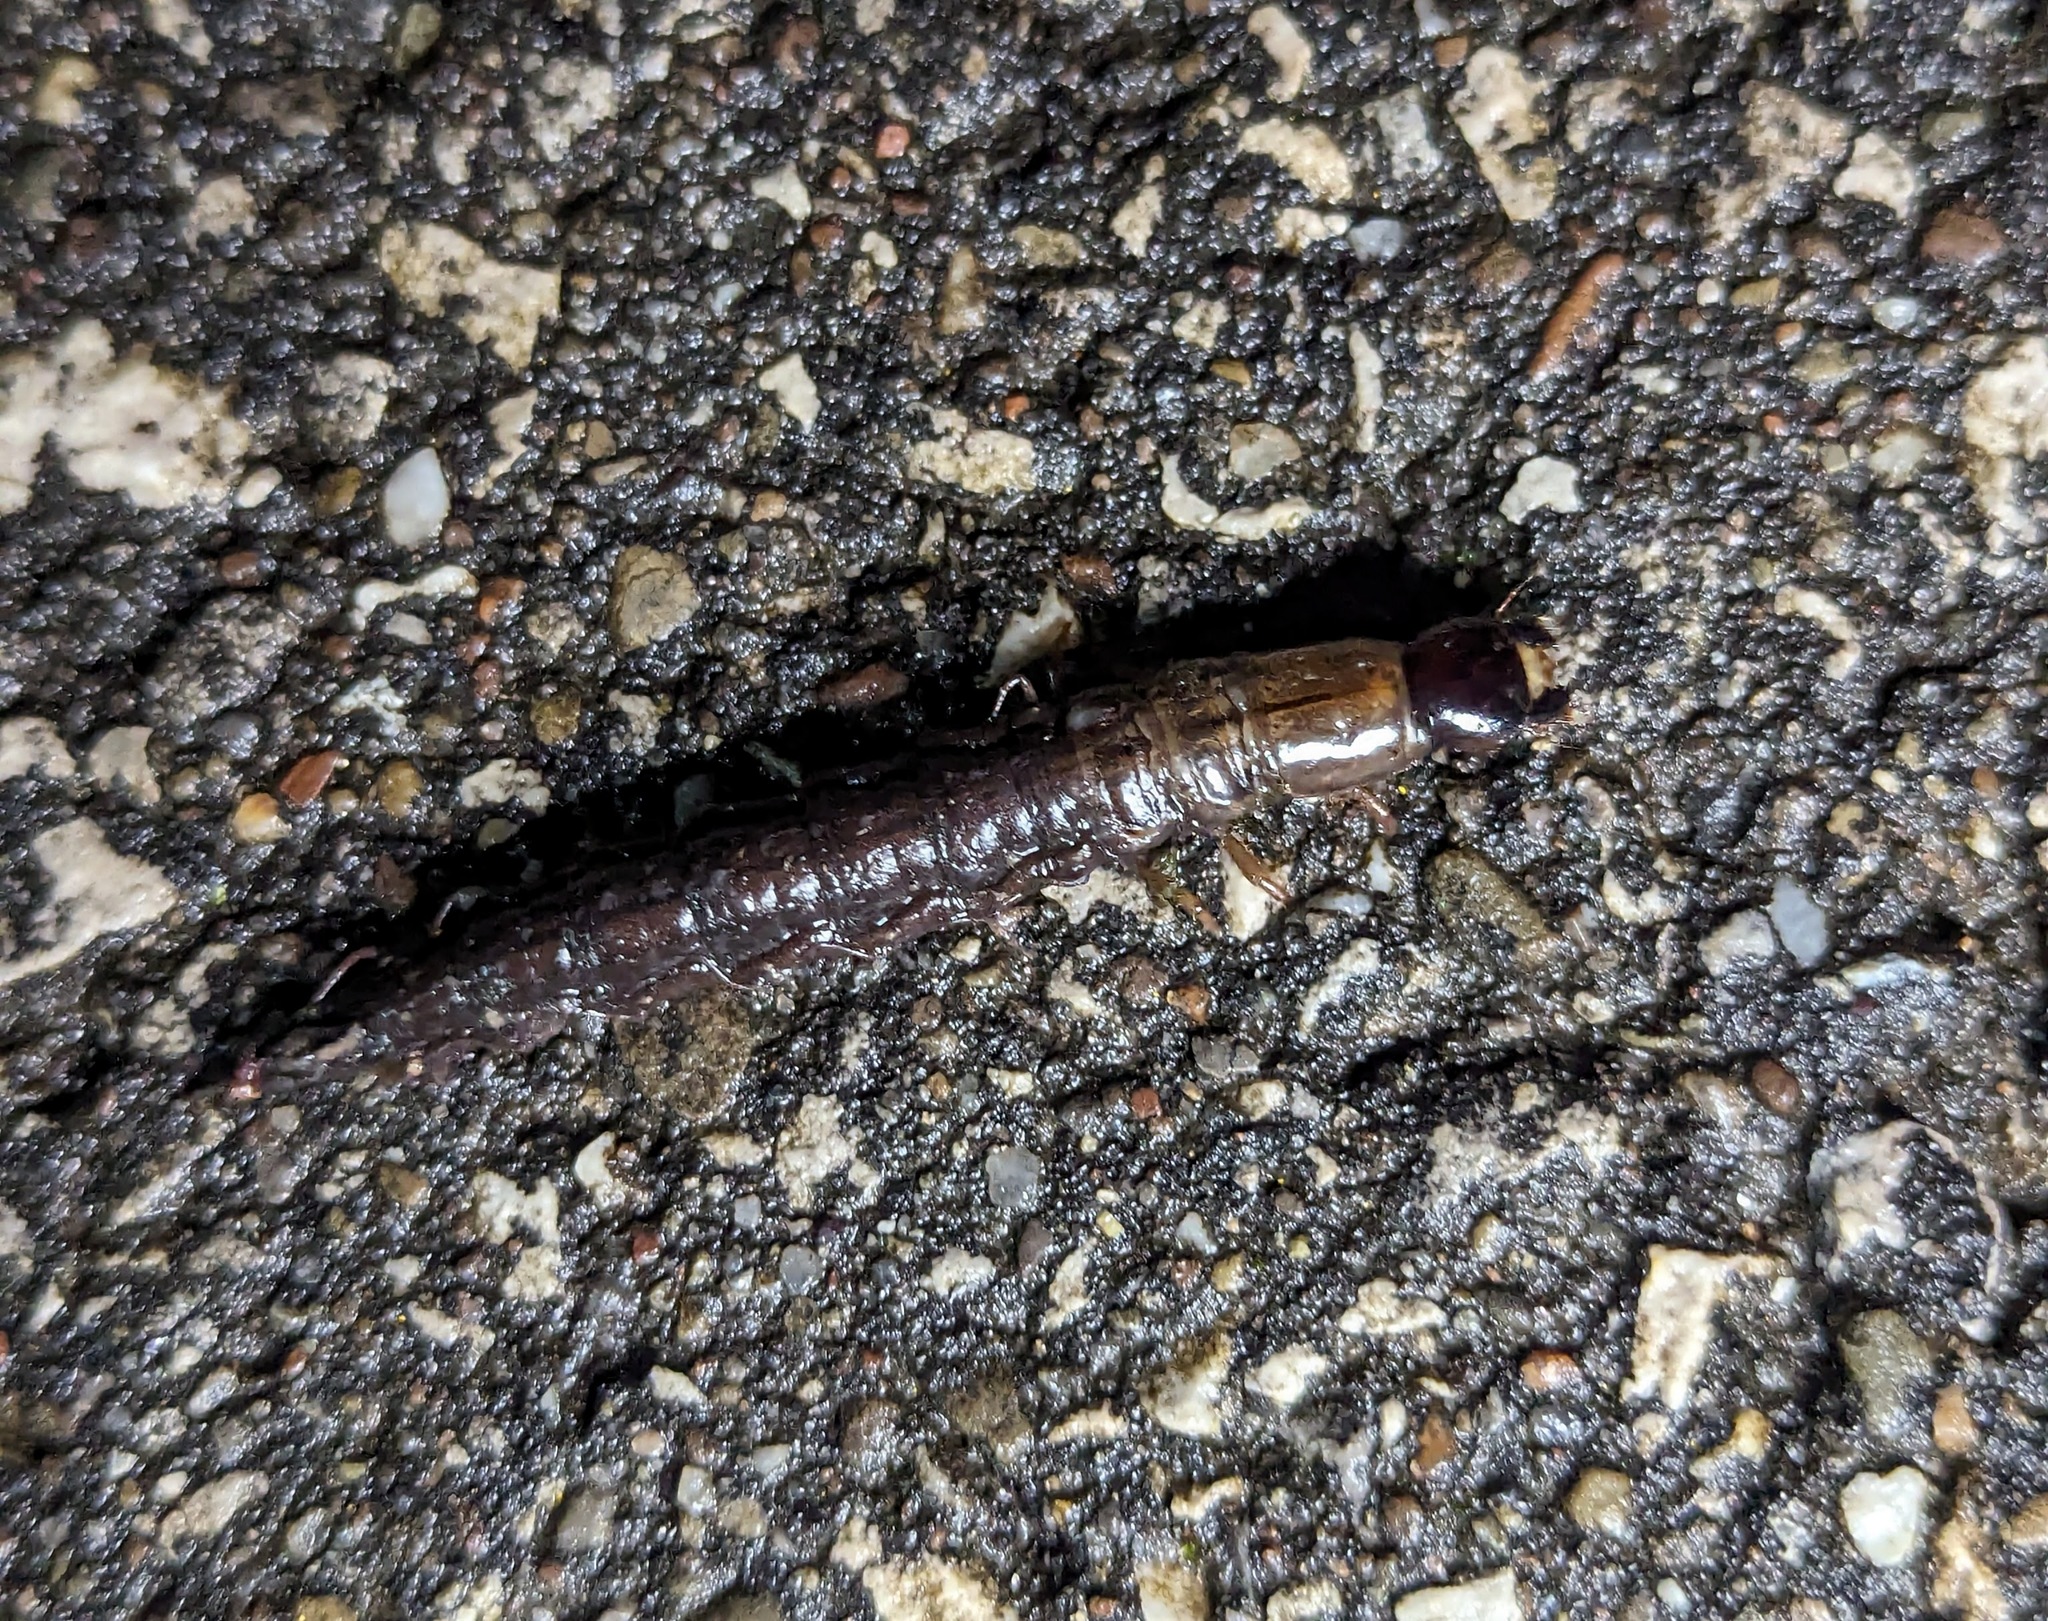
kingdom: Animalia
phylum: Arthropoda
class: Insecta
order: Megaloptera
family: Corydalidae
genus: Chauliodes
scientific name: Chauliodes rastricornis
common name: Spring fishfly
